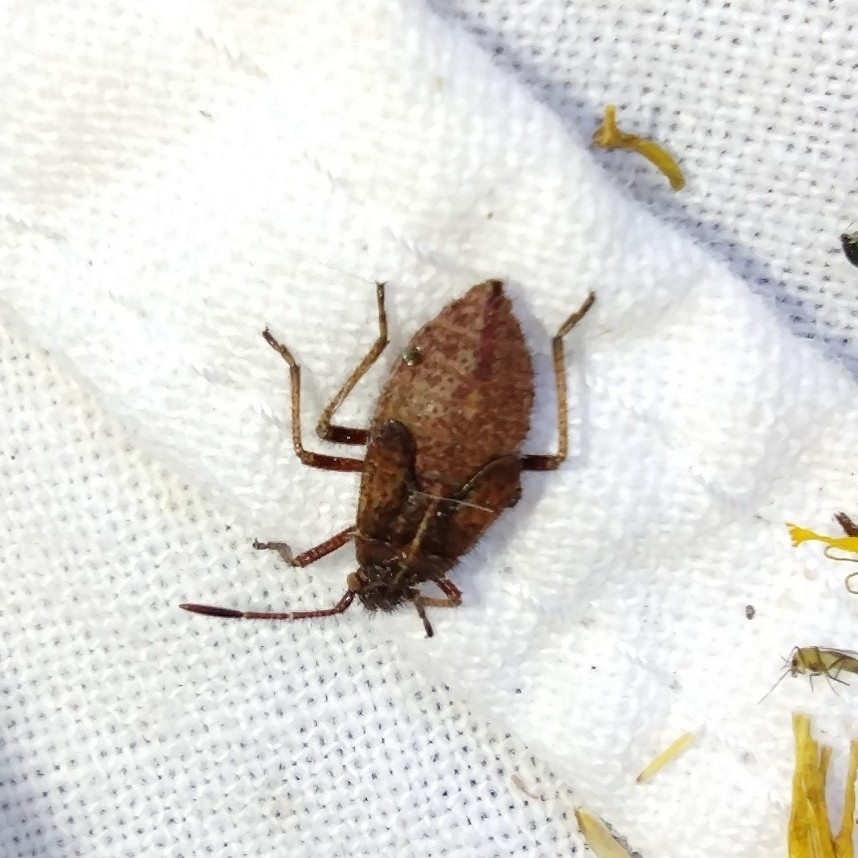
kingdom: Animalia
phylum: Arthropoda
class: Insecta
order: Hemiptera
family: Rhopalidae
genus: Corizus
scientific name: Corizus hyoscyami
